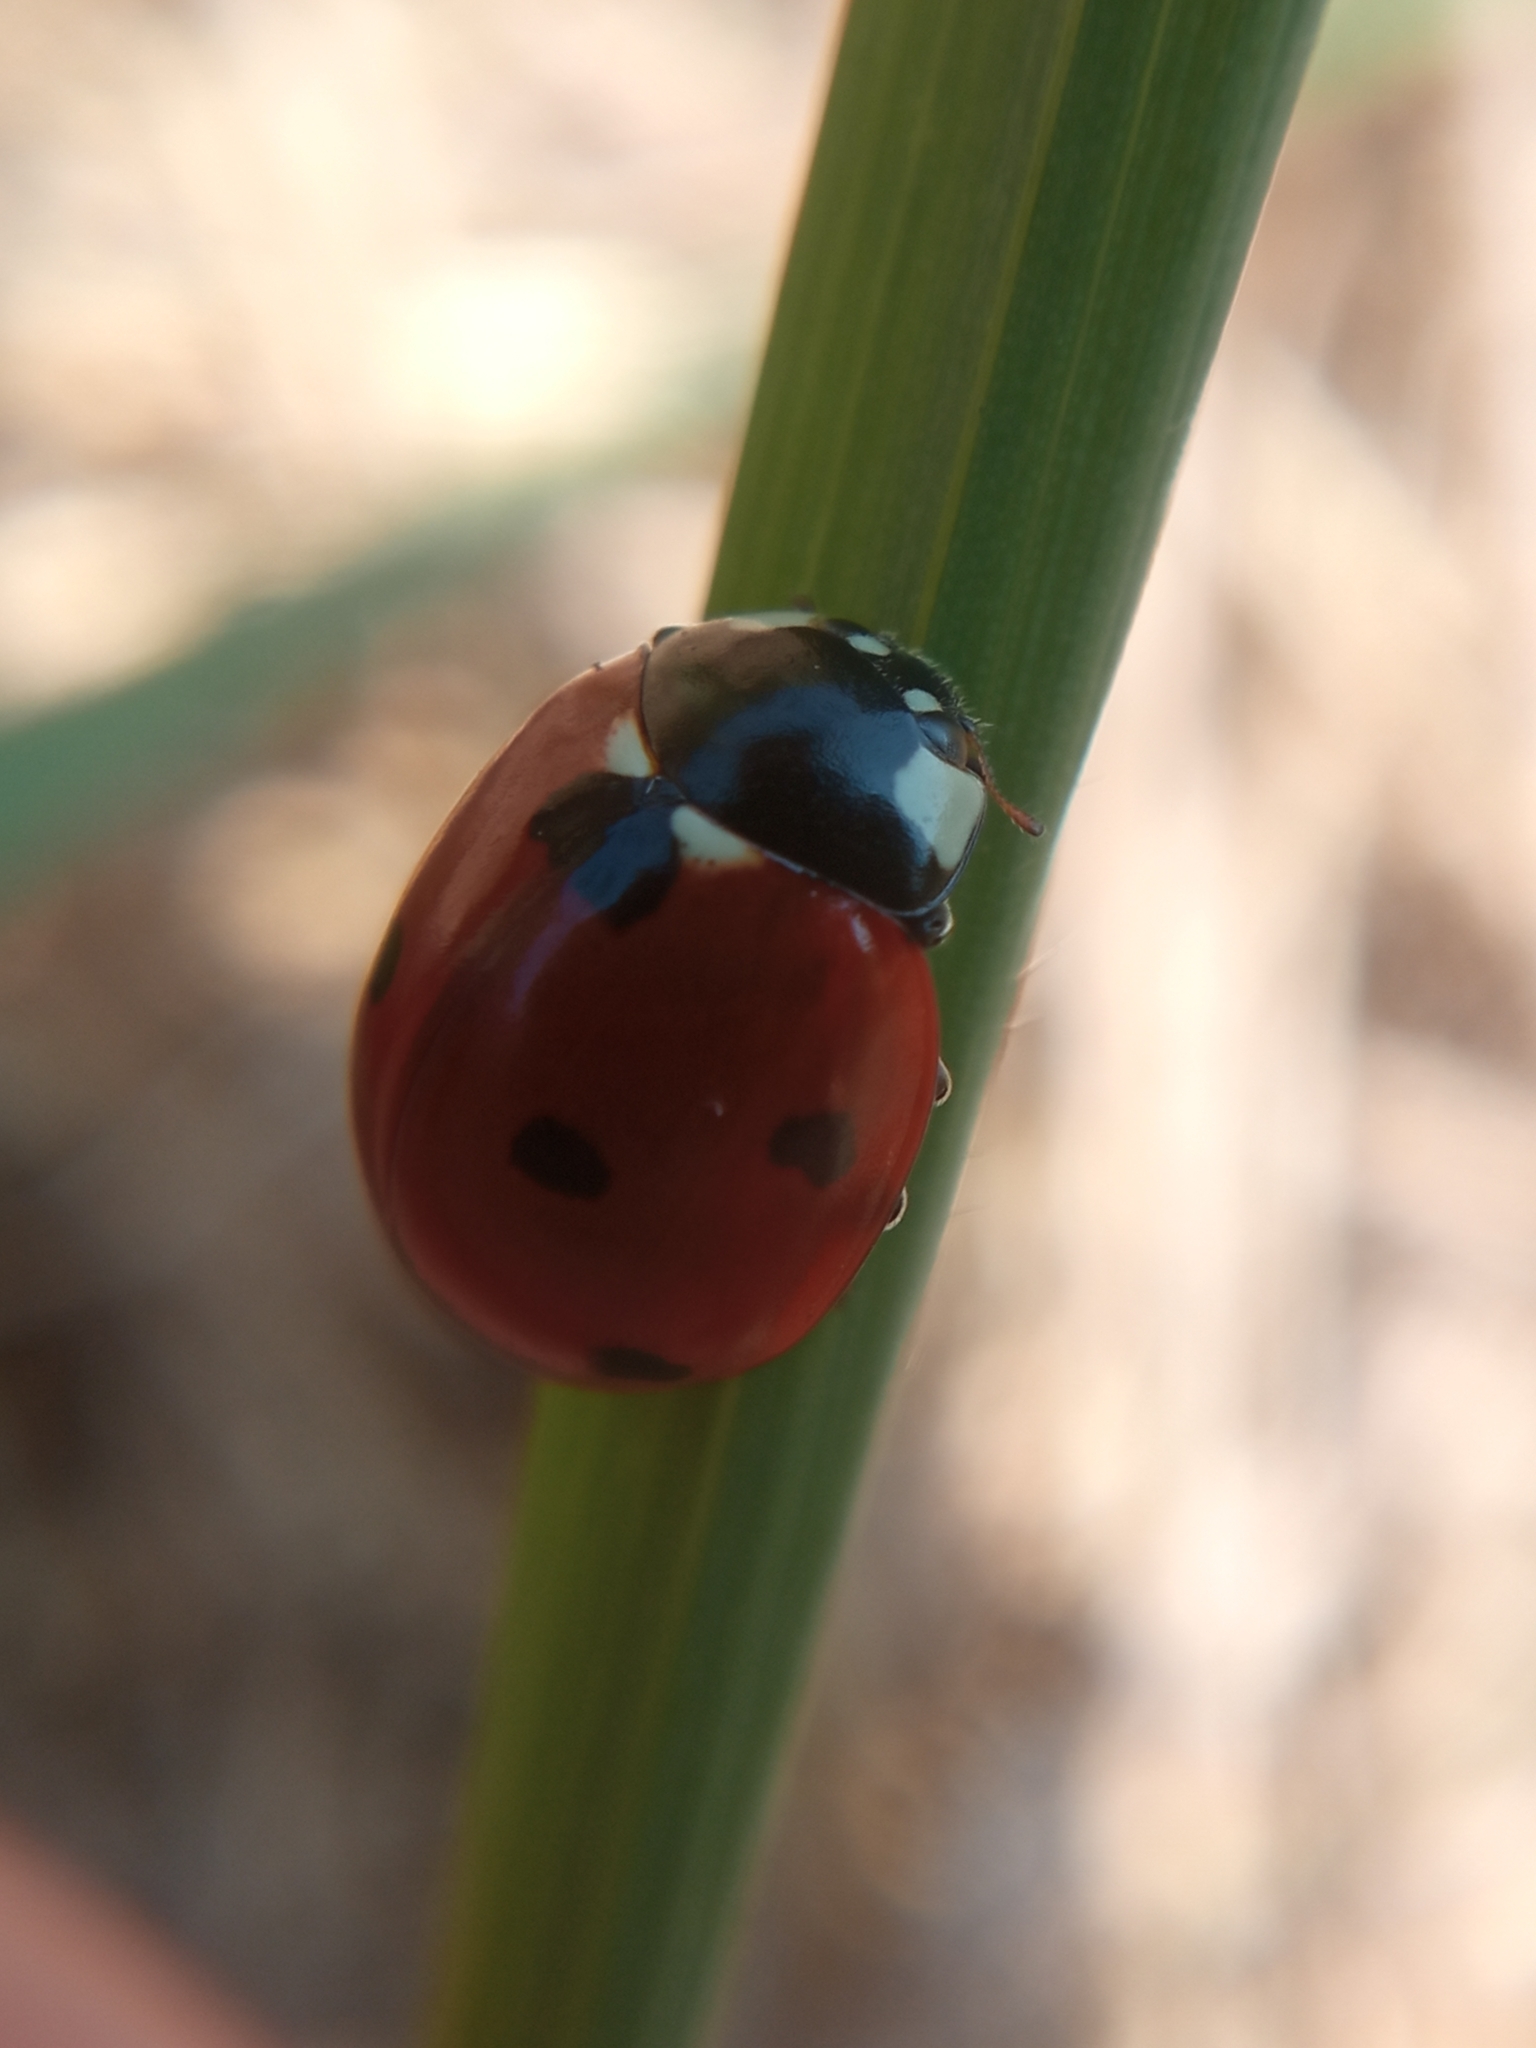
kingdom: Animalia
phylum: Arthropoda
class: Insecta
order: Coleoptera
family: Coccinellidae
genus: Coccinella
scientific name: Coccinella septempunctata
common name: Sevenspotted lady beetle
